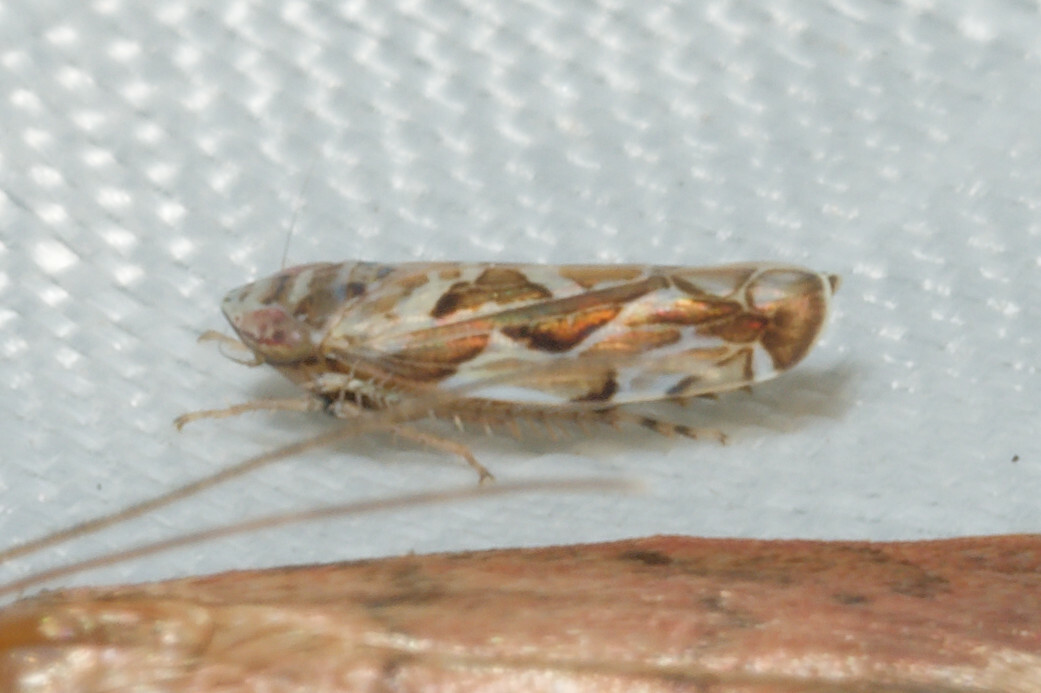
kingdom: Animalia
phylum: Arthropoda
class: Insecta
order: Hemiptera
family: Cicadellidae
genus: Sanctanus
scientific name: Sanctanus fasciatus
